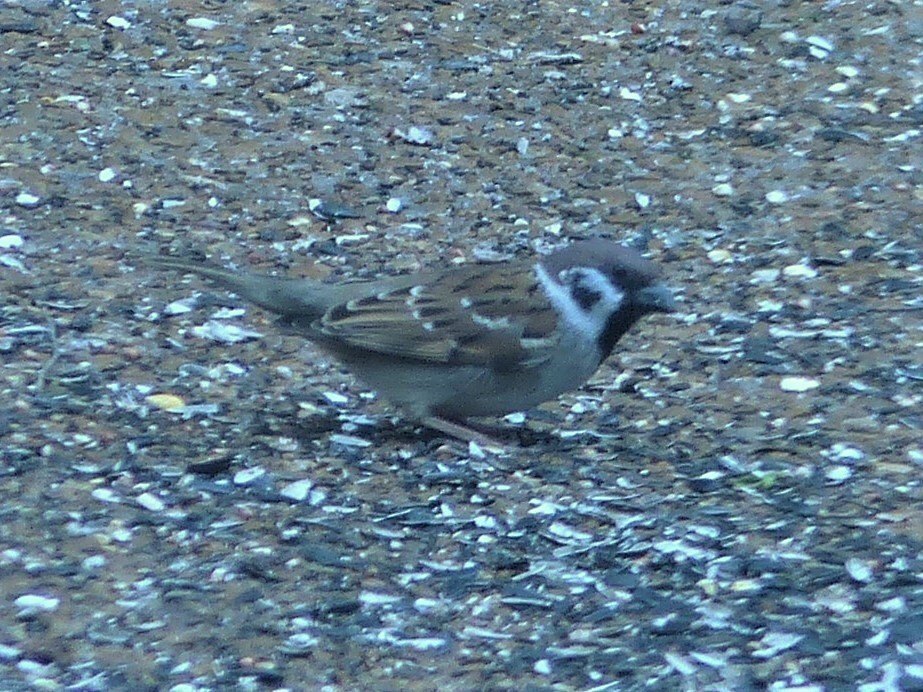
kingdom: Animalia
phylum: Chordata
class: Aves
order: Passeriformes
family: Passeridae
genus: Passer
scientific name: Passer montanus
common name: Eurasian tree sparrow
